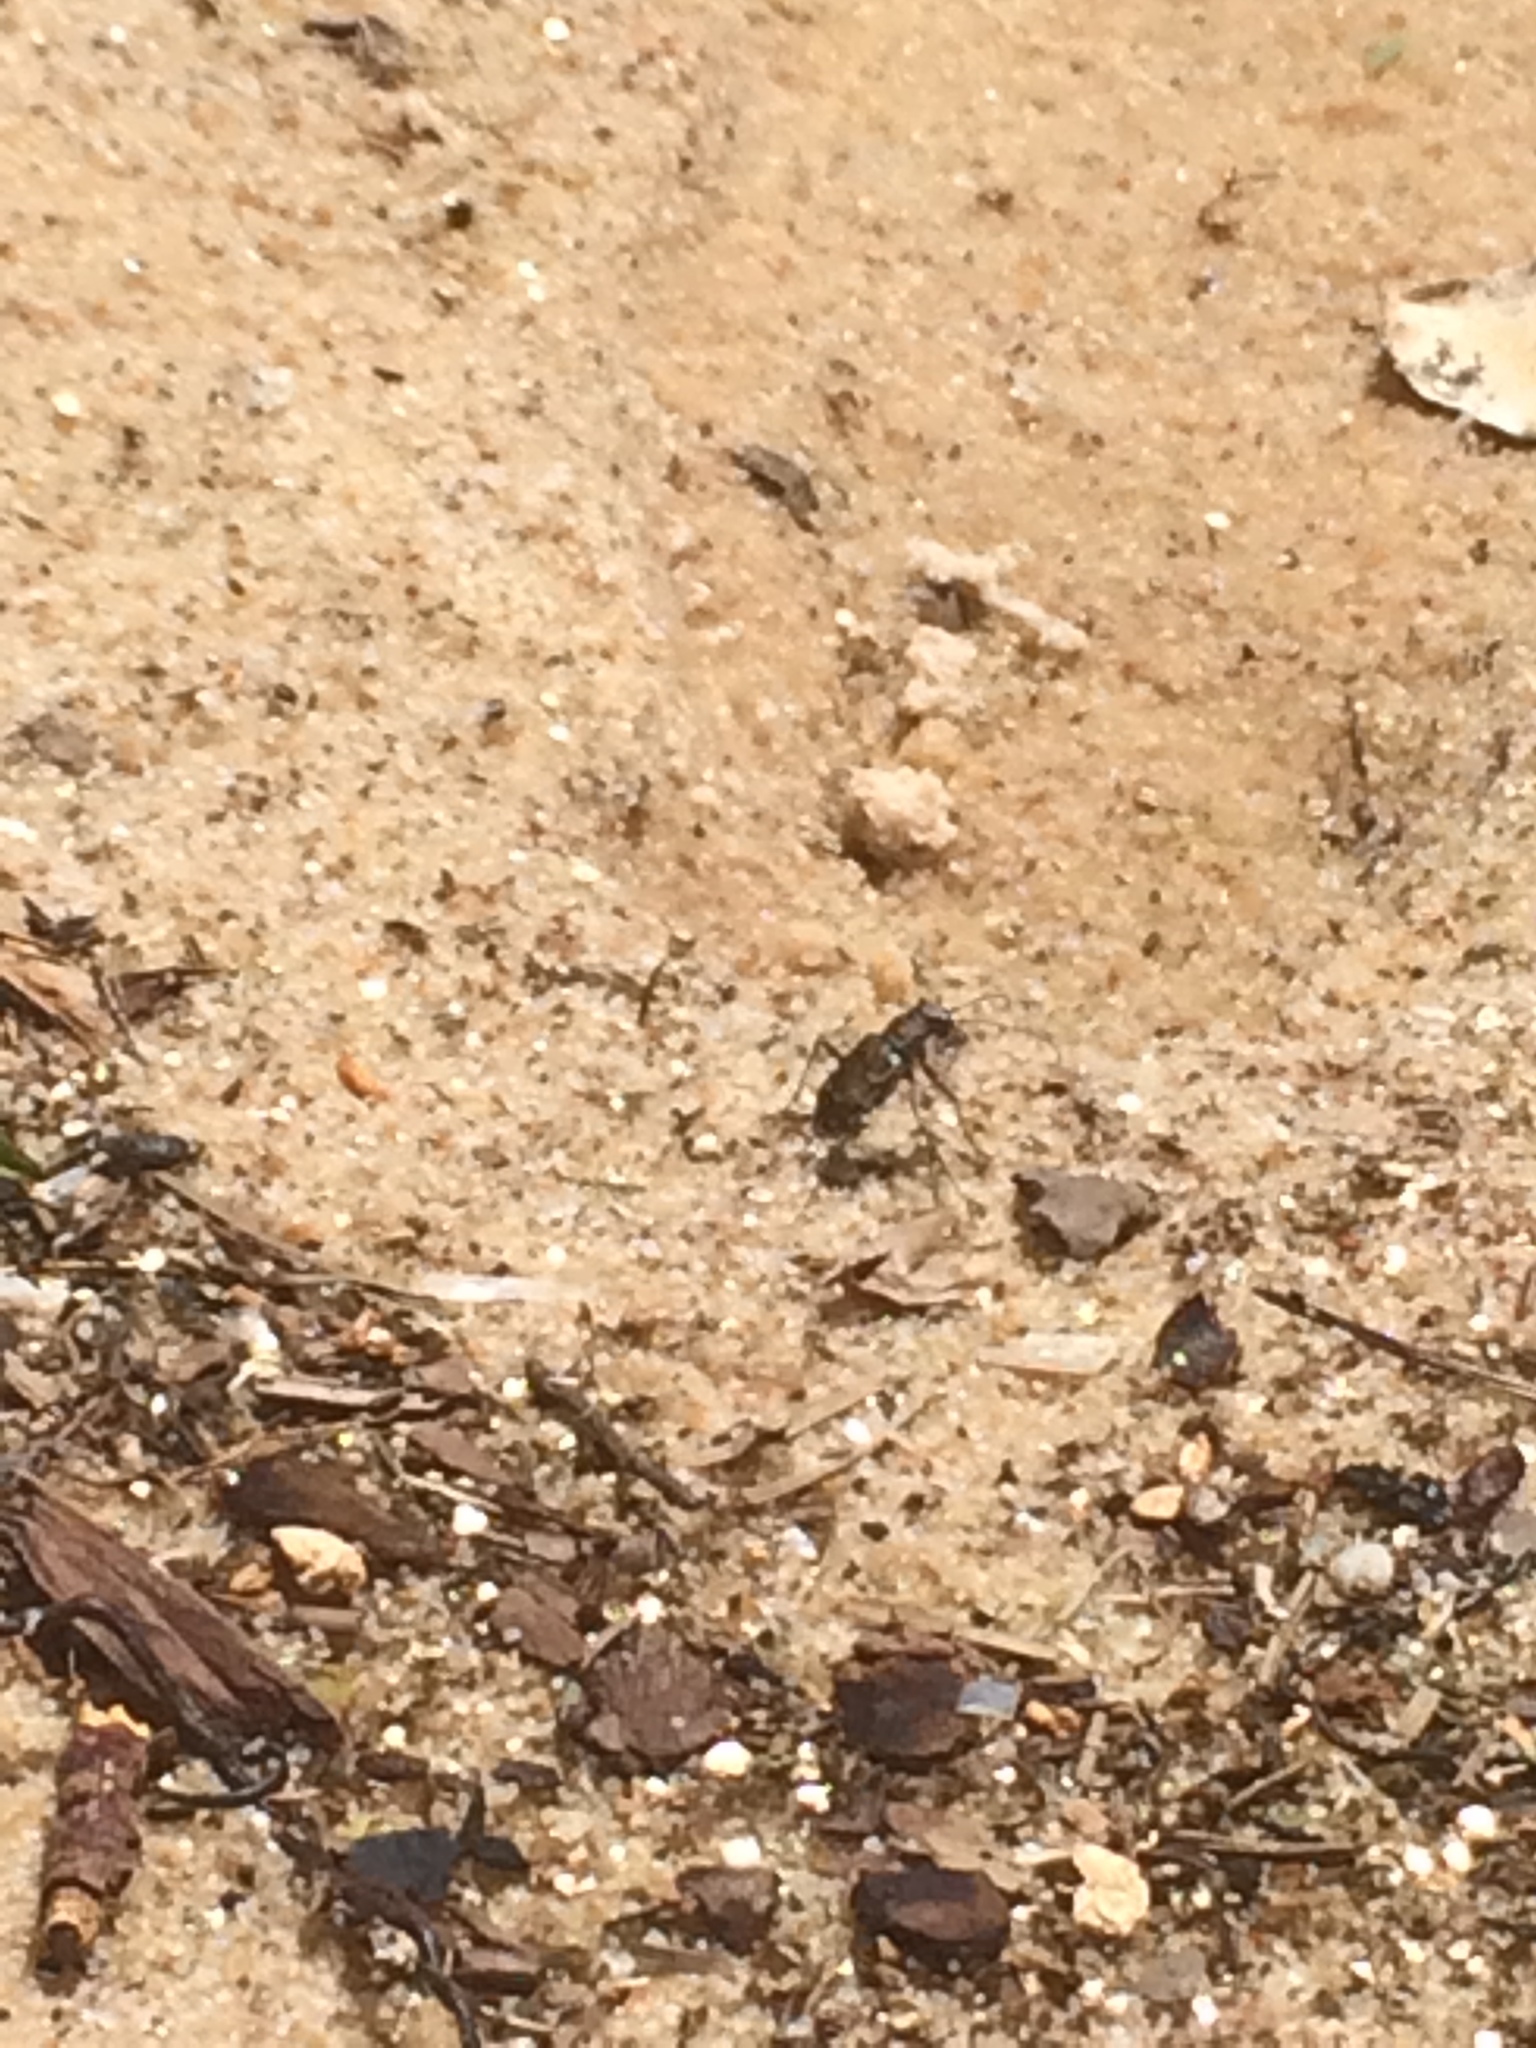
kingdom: Animalia
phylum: Arthropoda
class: Insecta
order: Coleoptera
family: Carabidae
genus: Cicindela
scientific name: Cicindela repanda
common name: Bronzed tiger beetle
